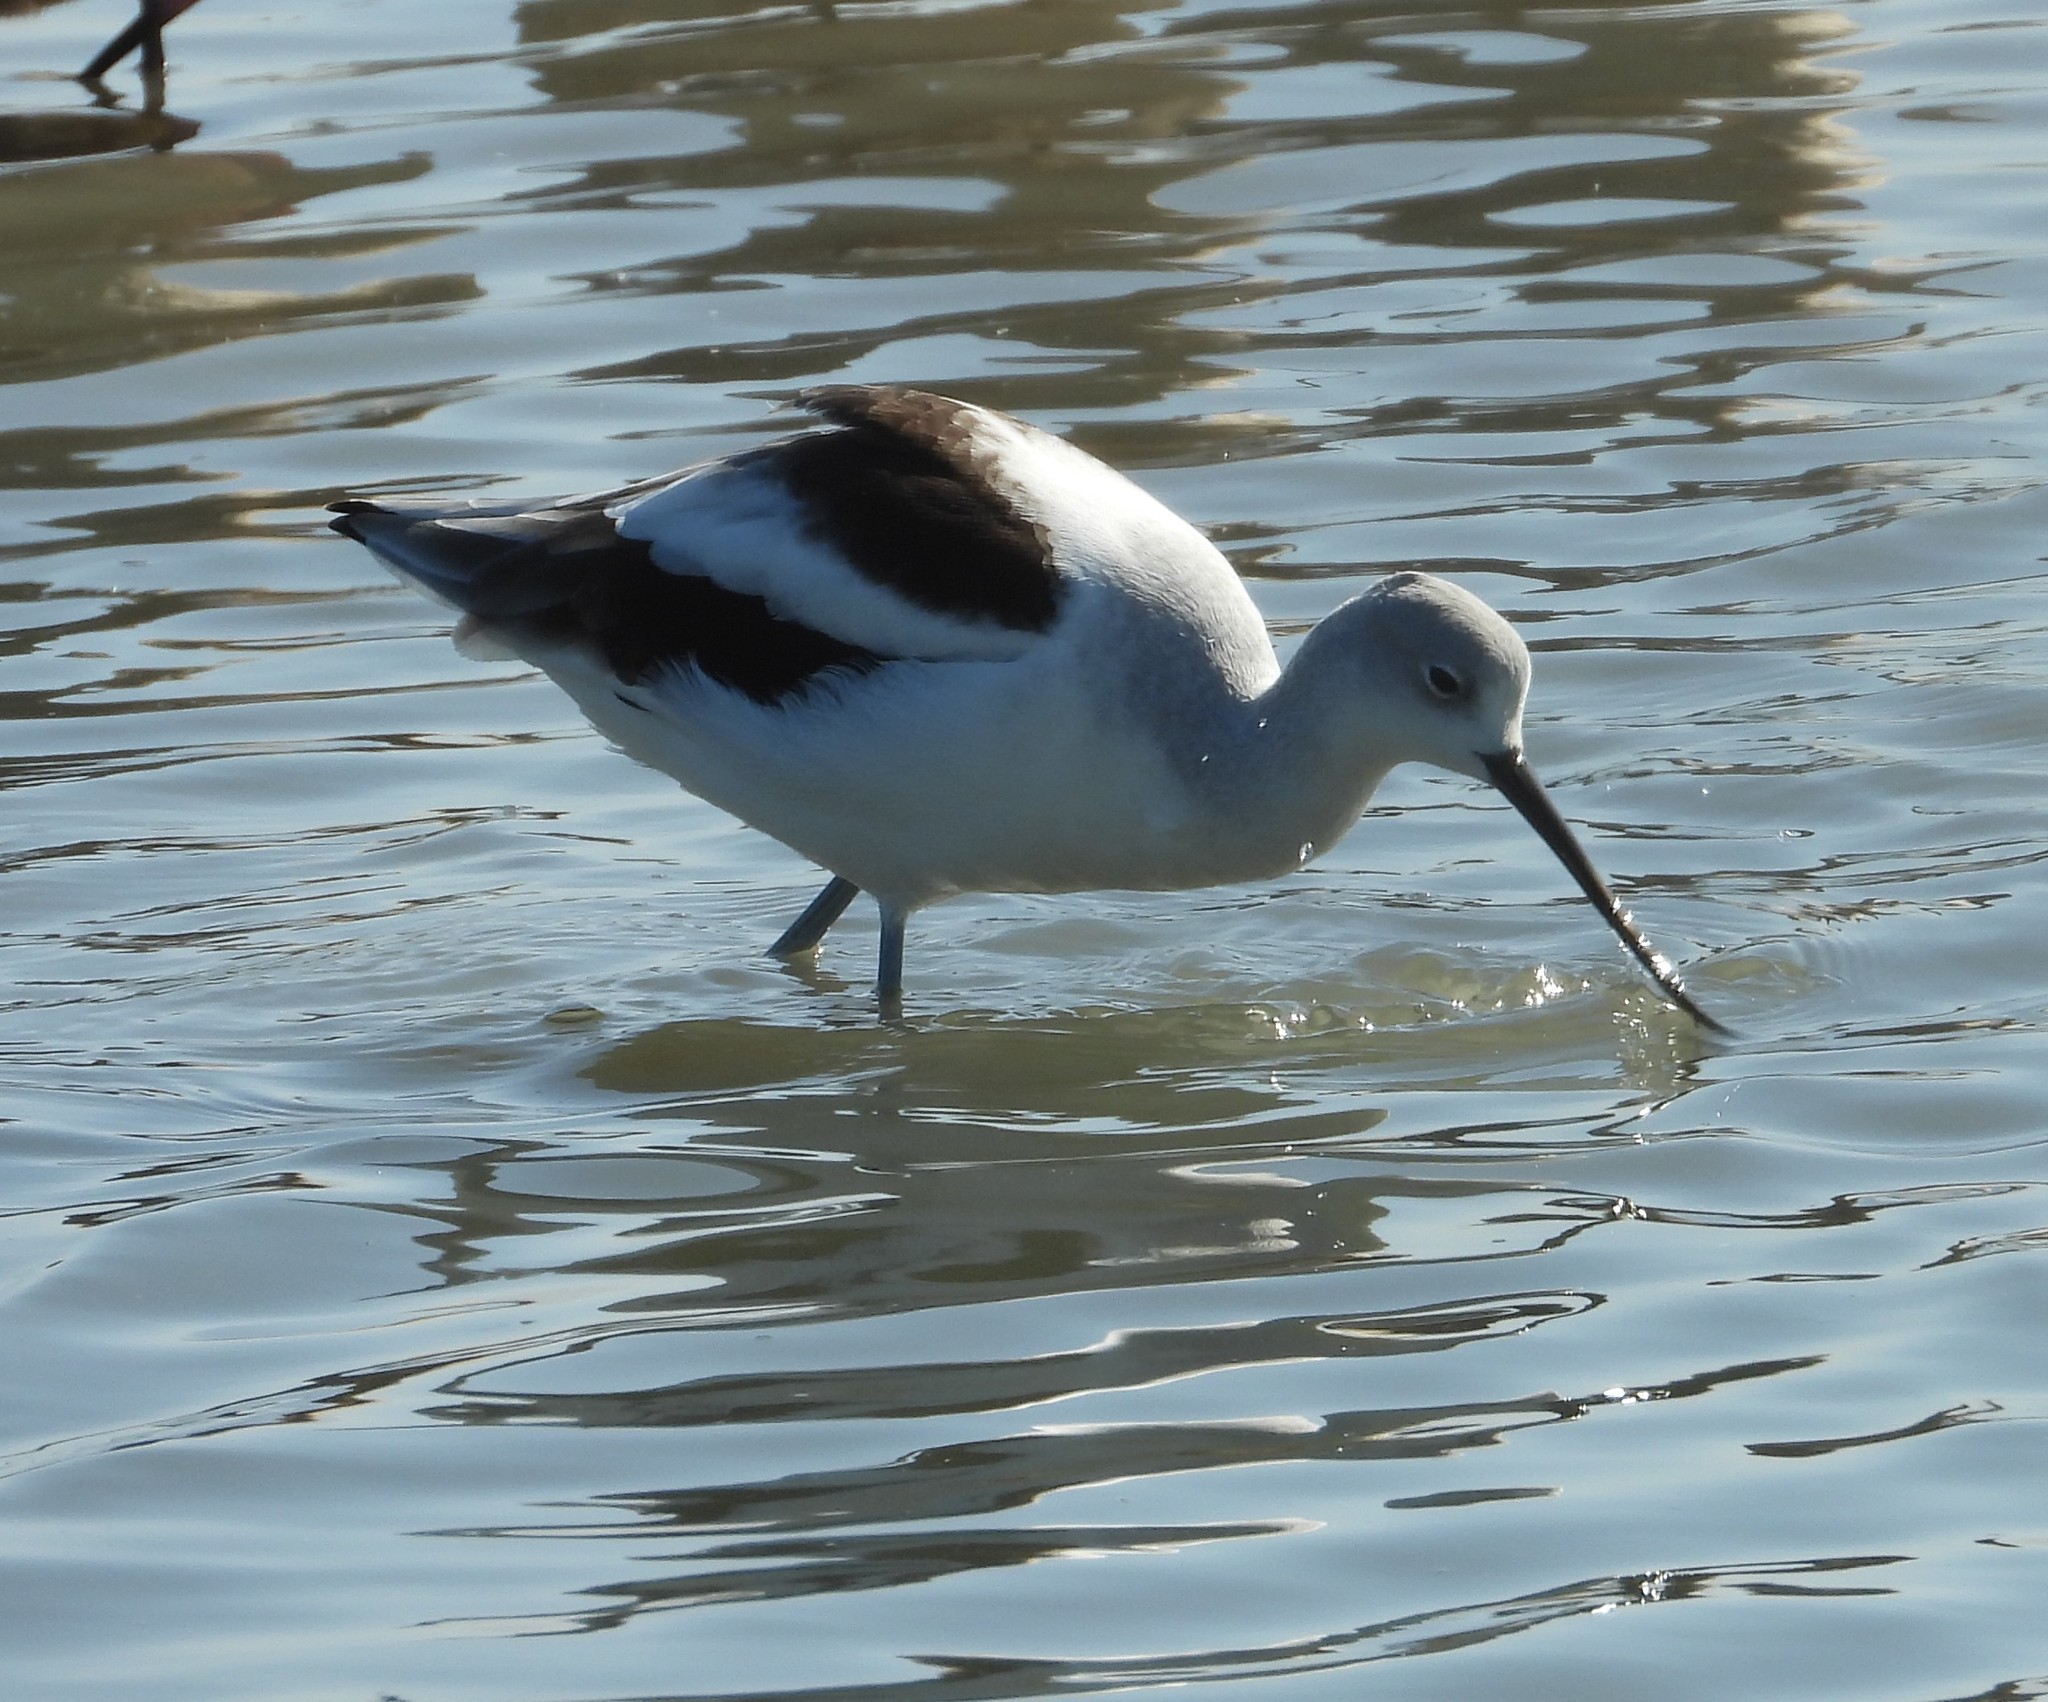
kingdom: Animalia
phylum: Chordata
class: Aves
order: Charadriiformes
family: Recurvirostridae
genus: Recurvirostra
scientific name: Recurvirostra americana
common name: American avocet
